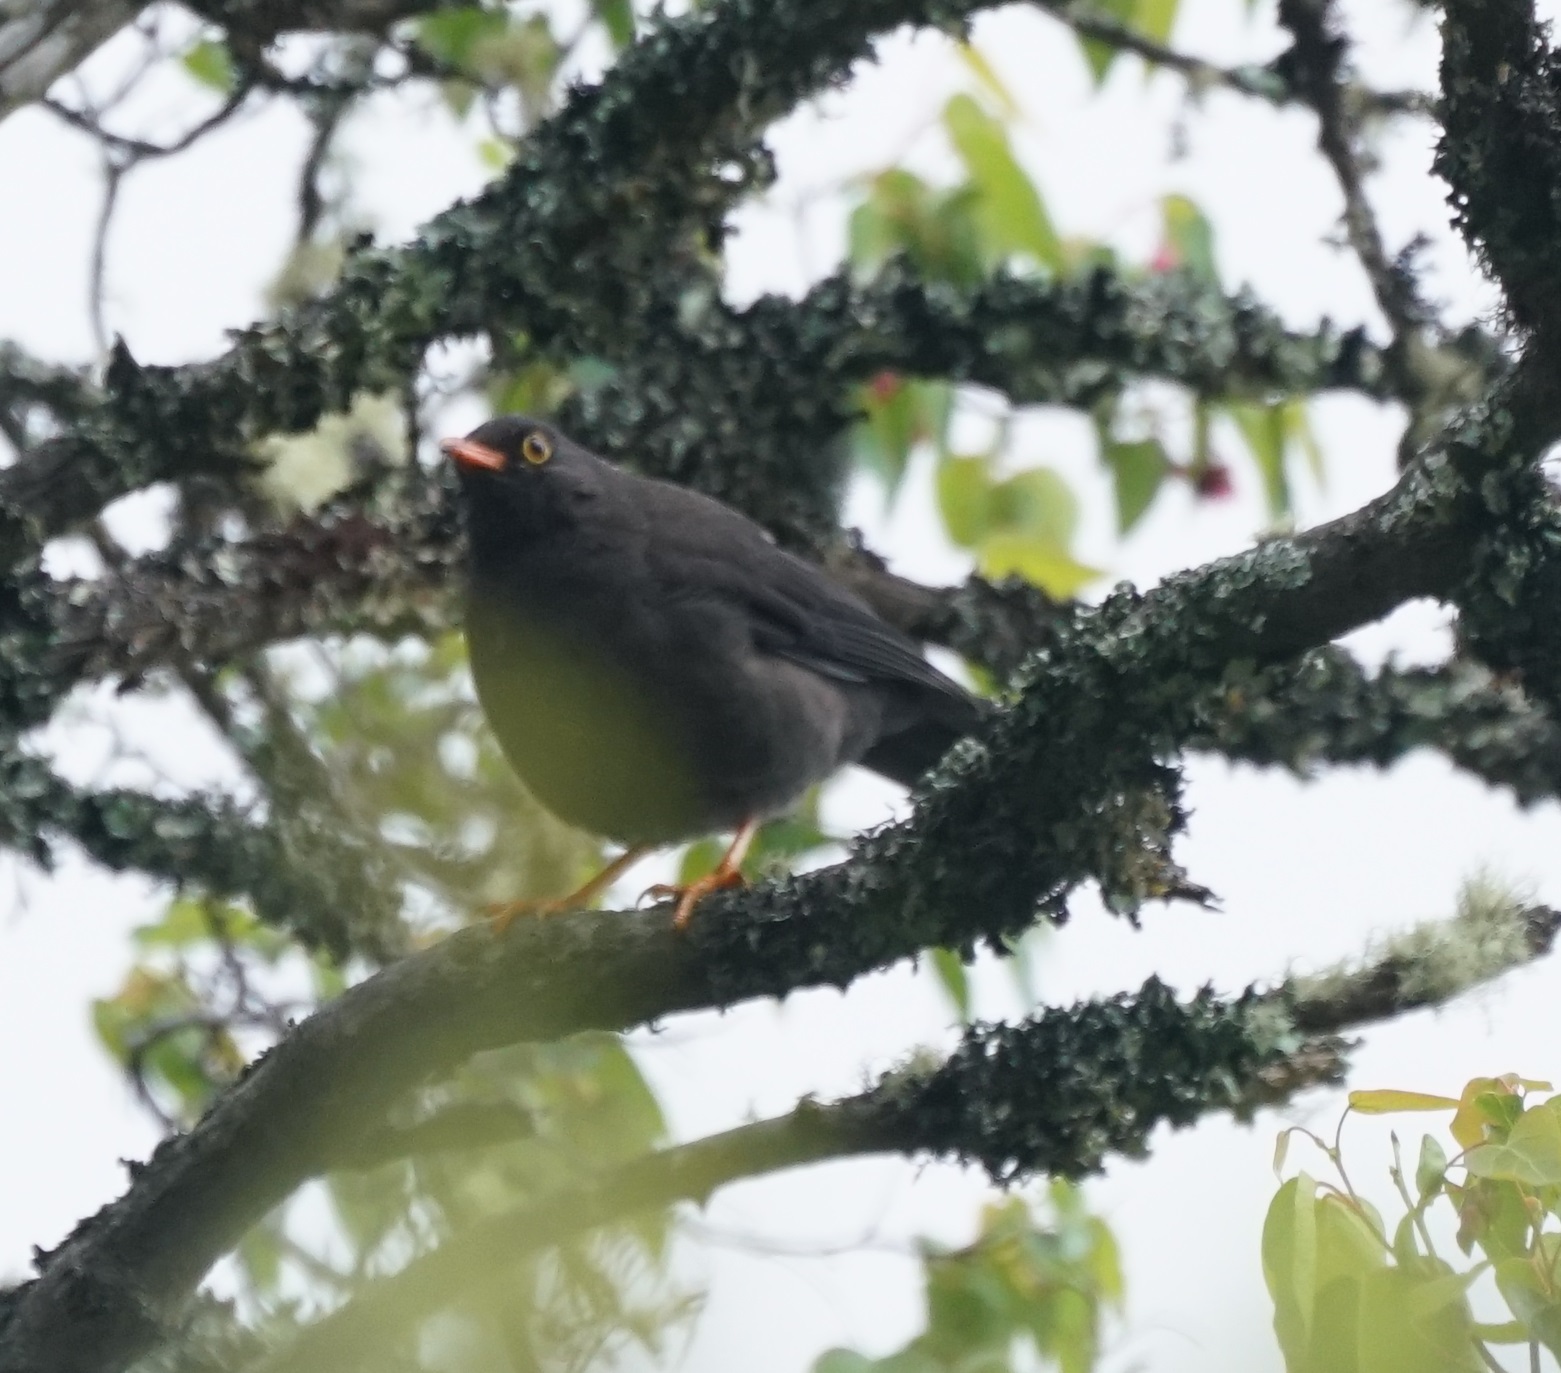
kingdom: Animalia
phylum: Chordata
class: Aves
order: Passeriformes
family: Turdidae
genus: Turdus
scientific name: Turdus fuscater
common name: Great thrush
